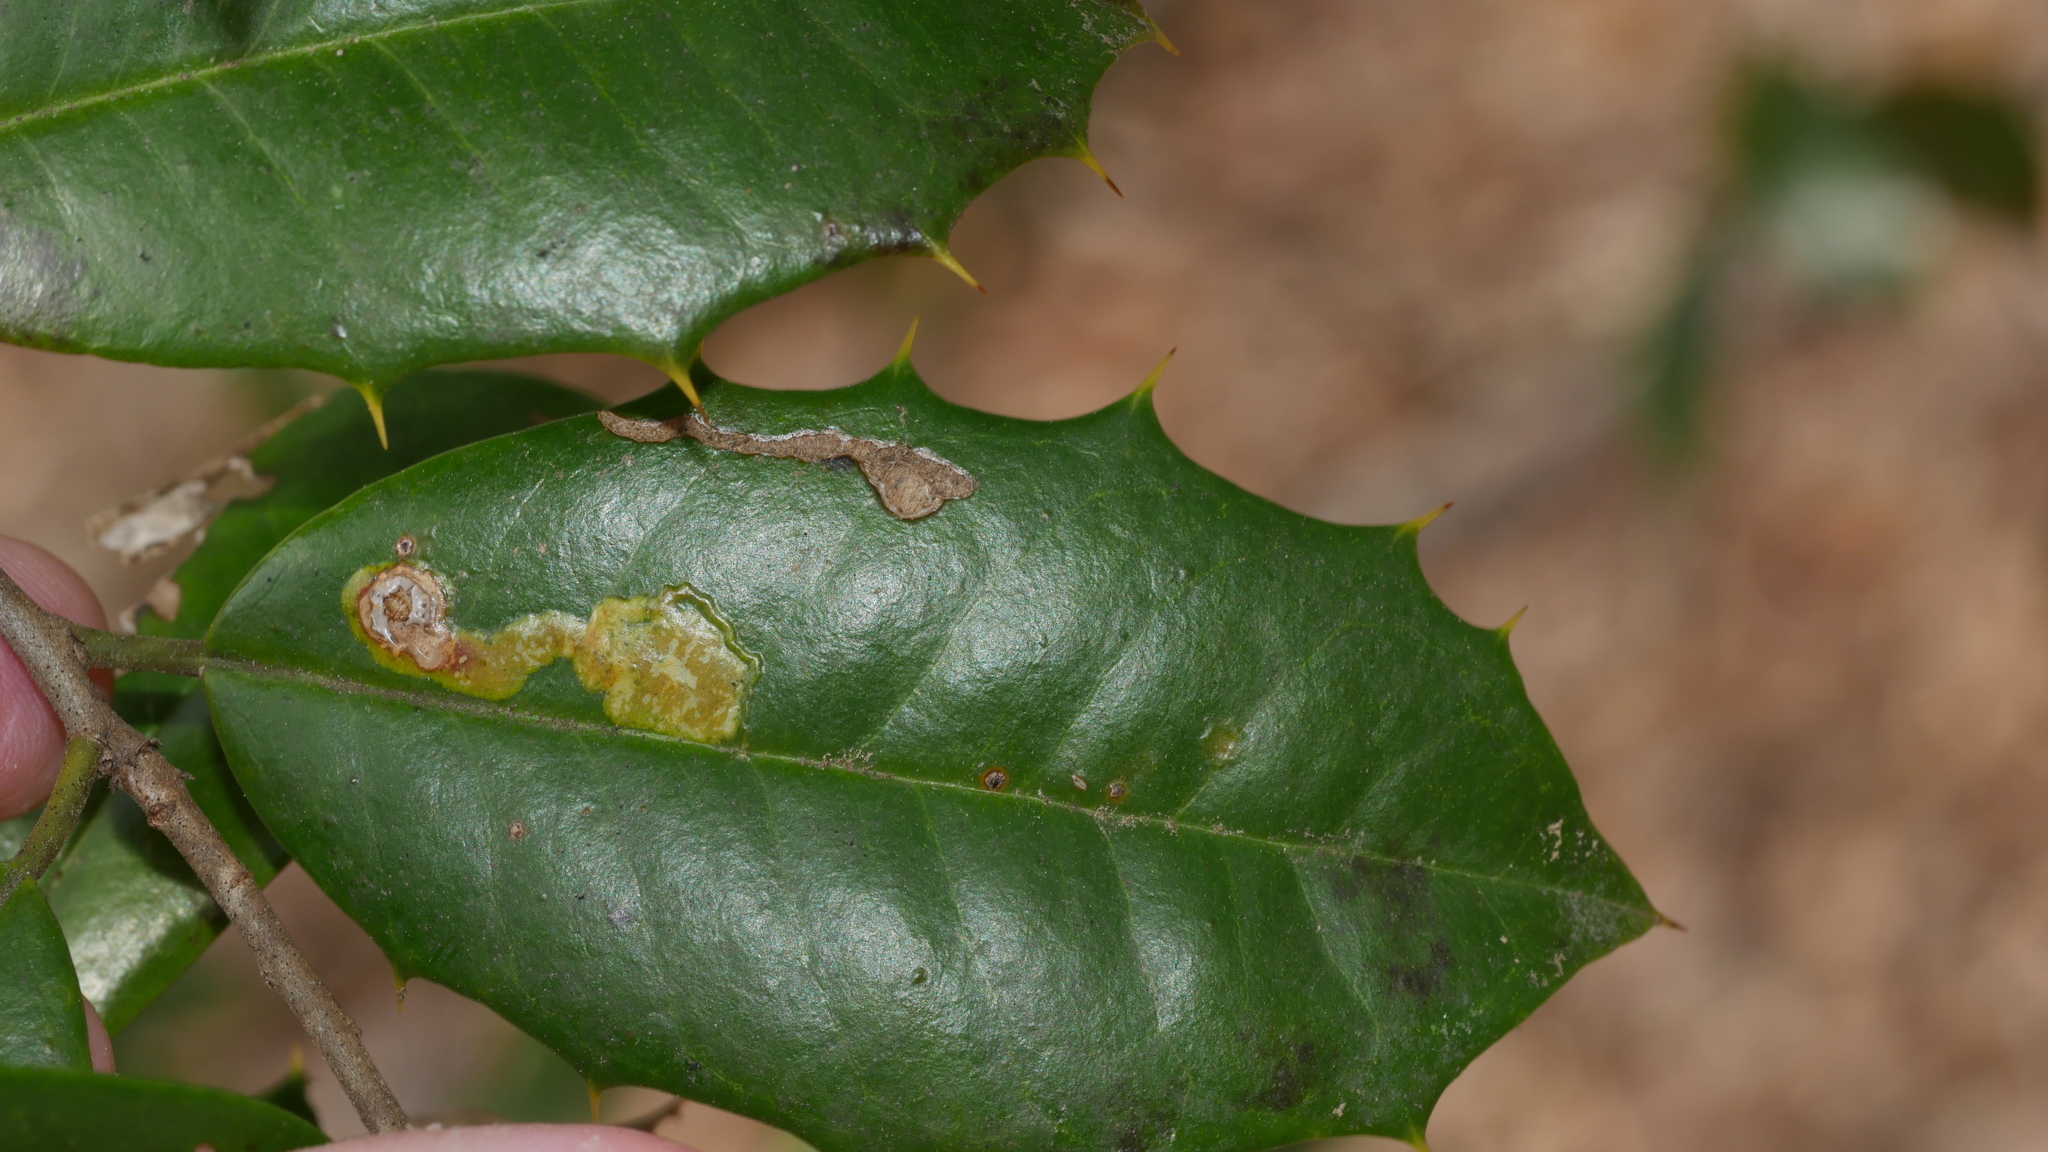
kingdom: Animalia
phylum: Arthropoda
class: Insecta
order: Diptera
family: Agromyzidae
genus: Phytomyza
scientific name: Phytomyza ilicicola
